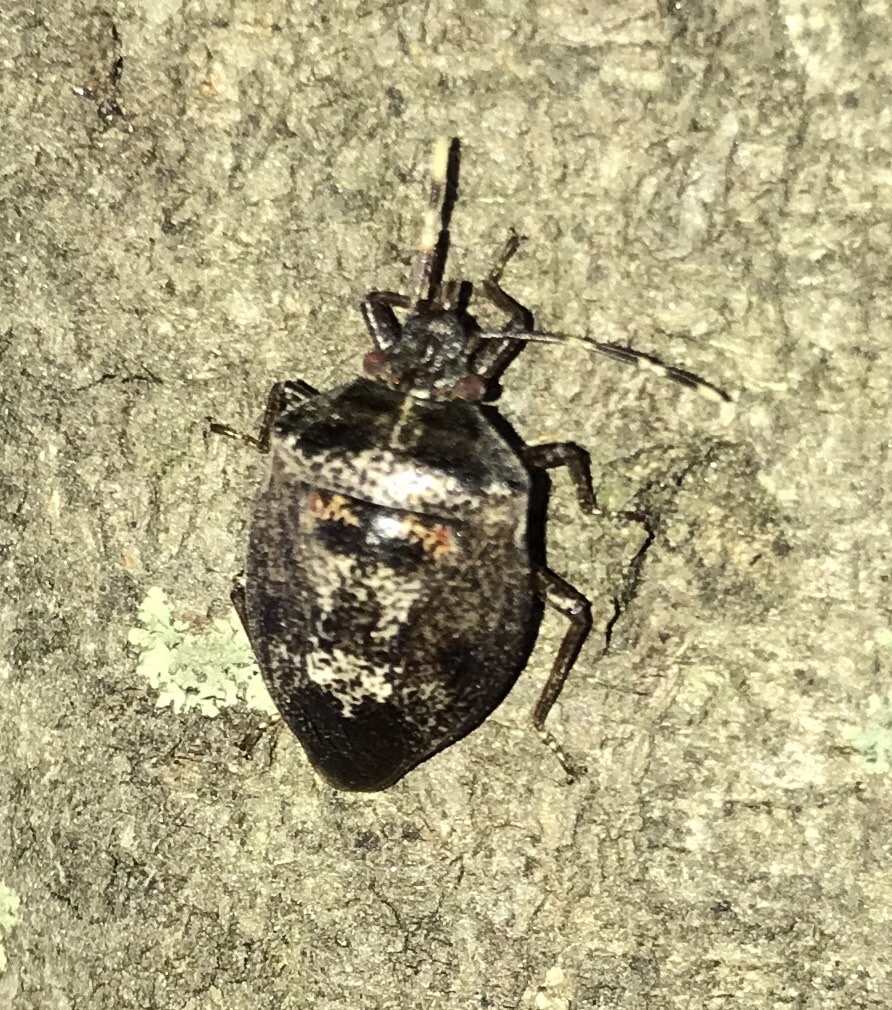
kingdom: Animalia
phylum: Arthropoda
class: Insecta
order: Hemiptera
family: Pentatomidae
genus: Antiteuchus
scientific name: Antiteuchus mixtus
